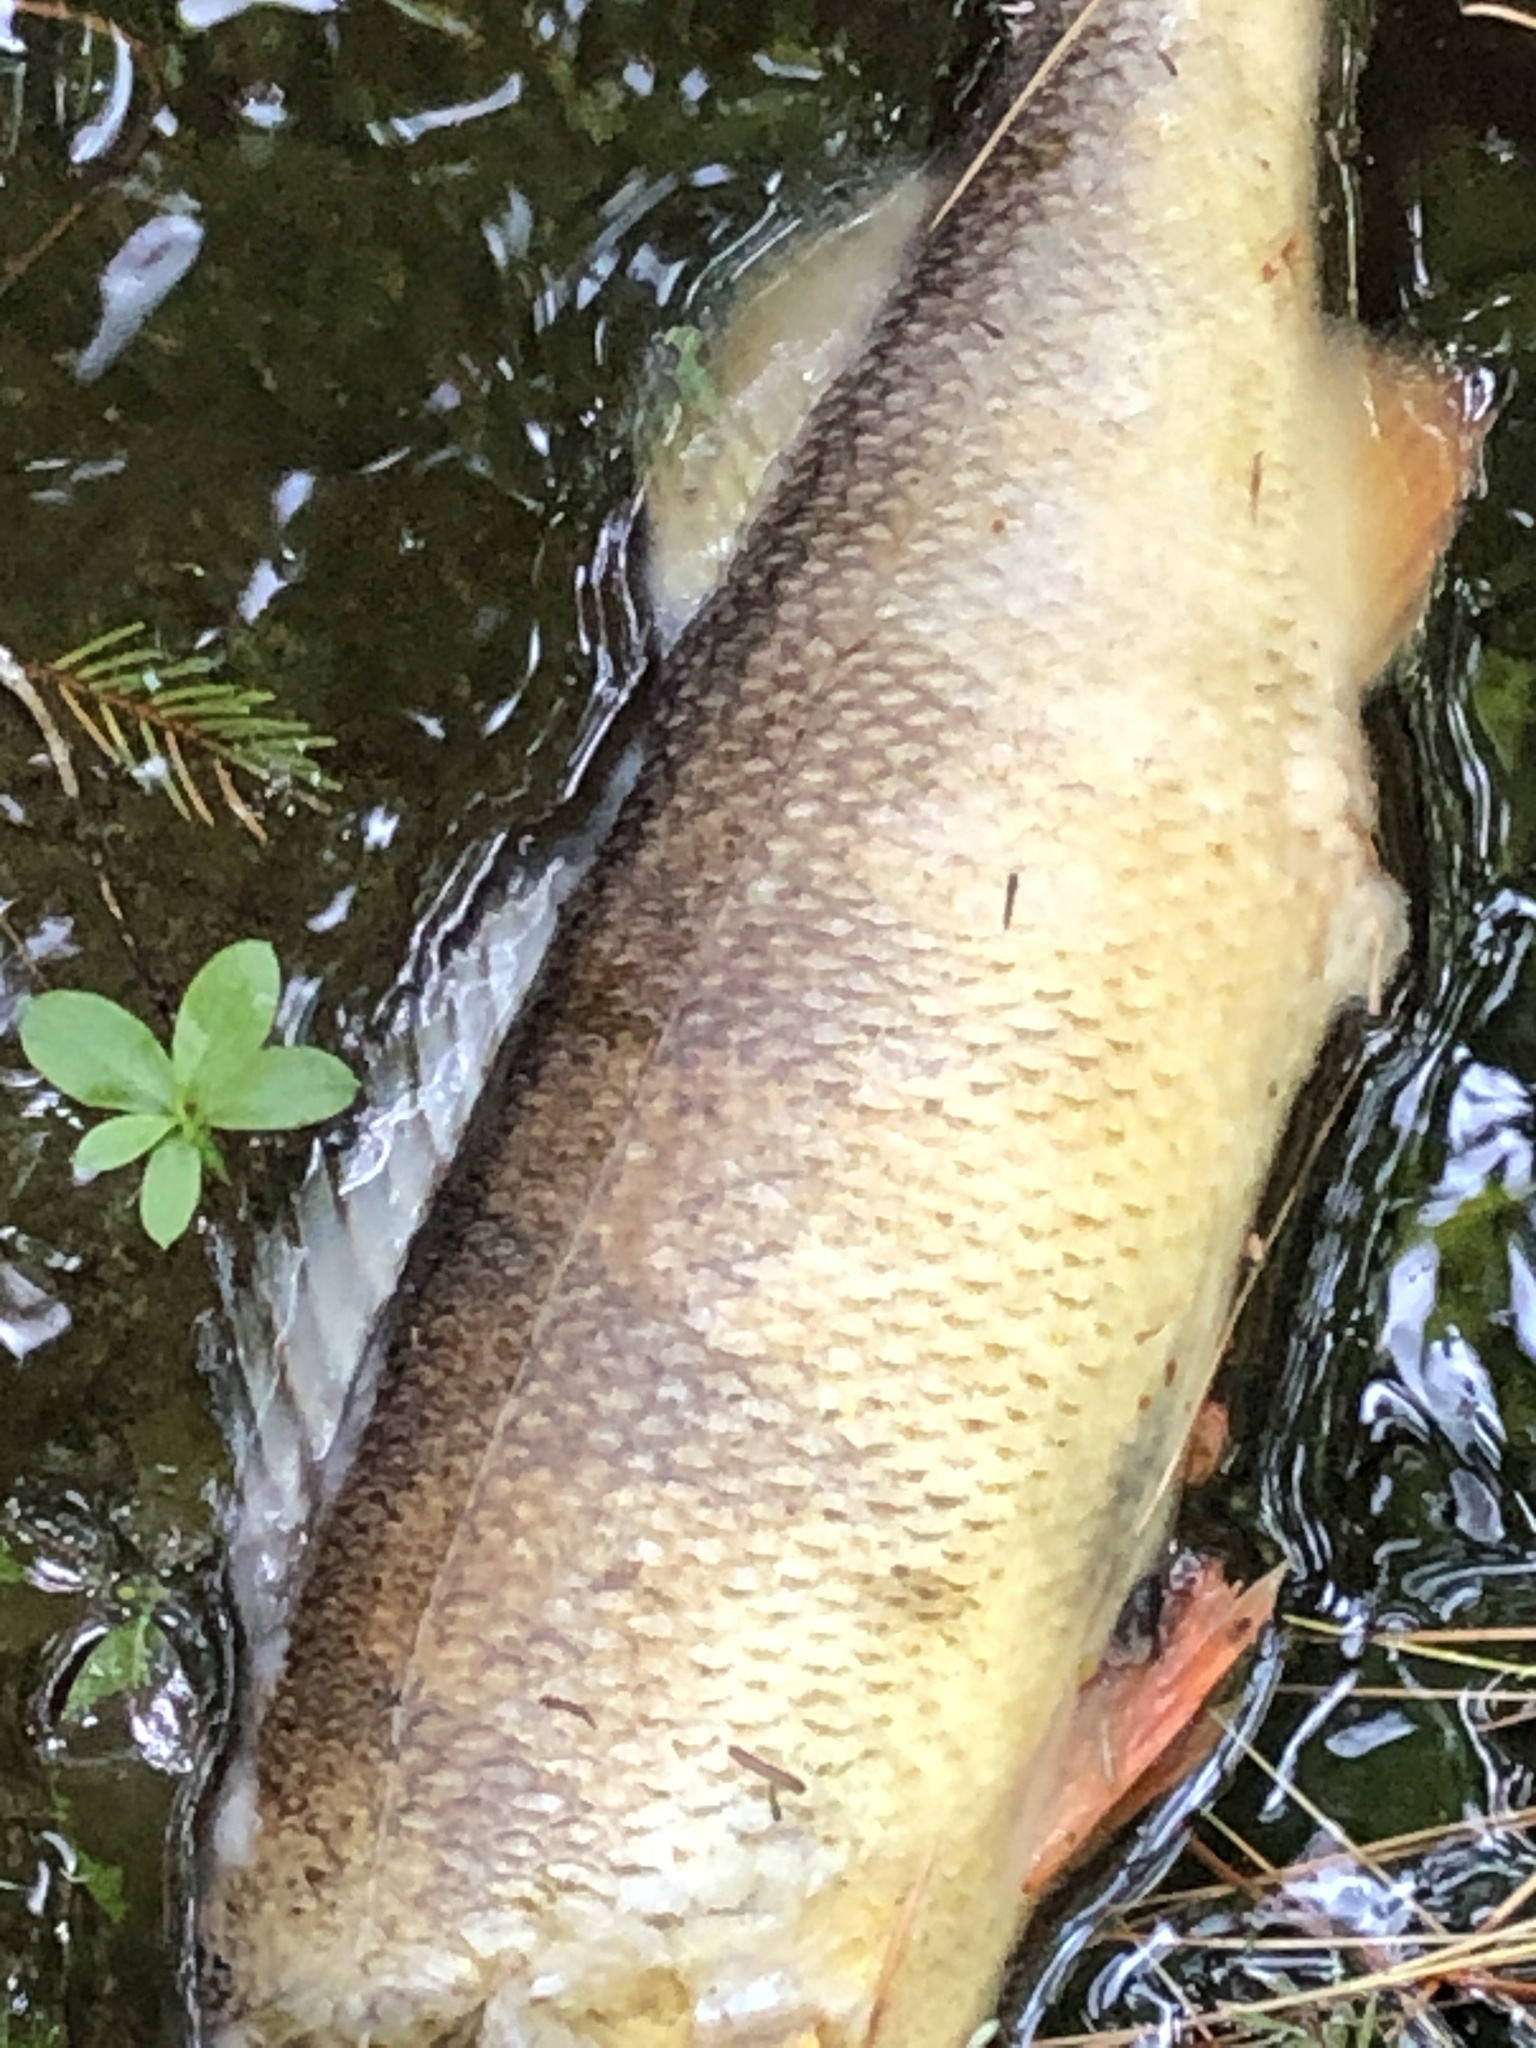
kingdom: Animalia
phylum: Chordata
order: Perciformes
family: Percidae
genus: Perca
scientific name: Perca flavescens
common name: Yellow perch
